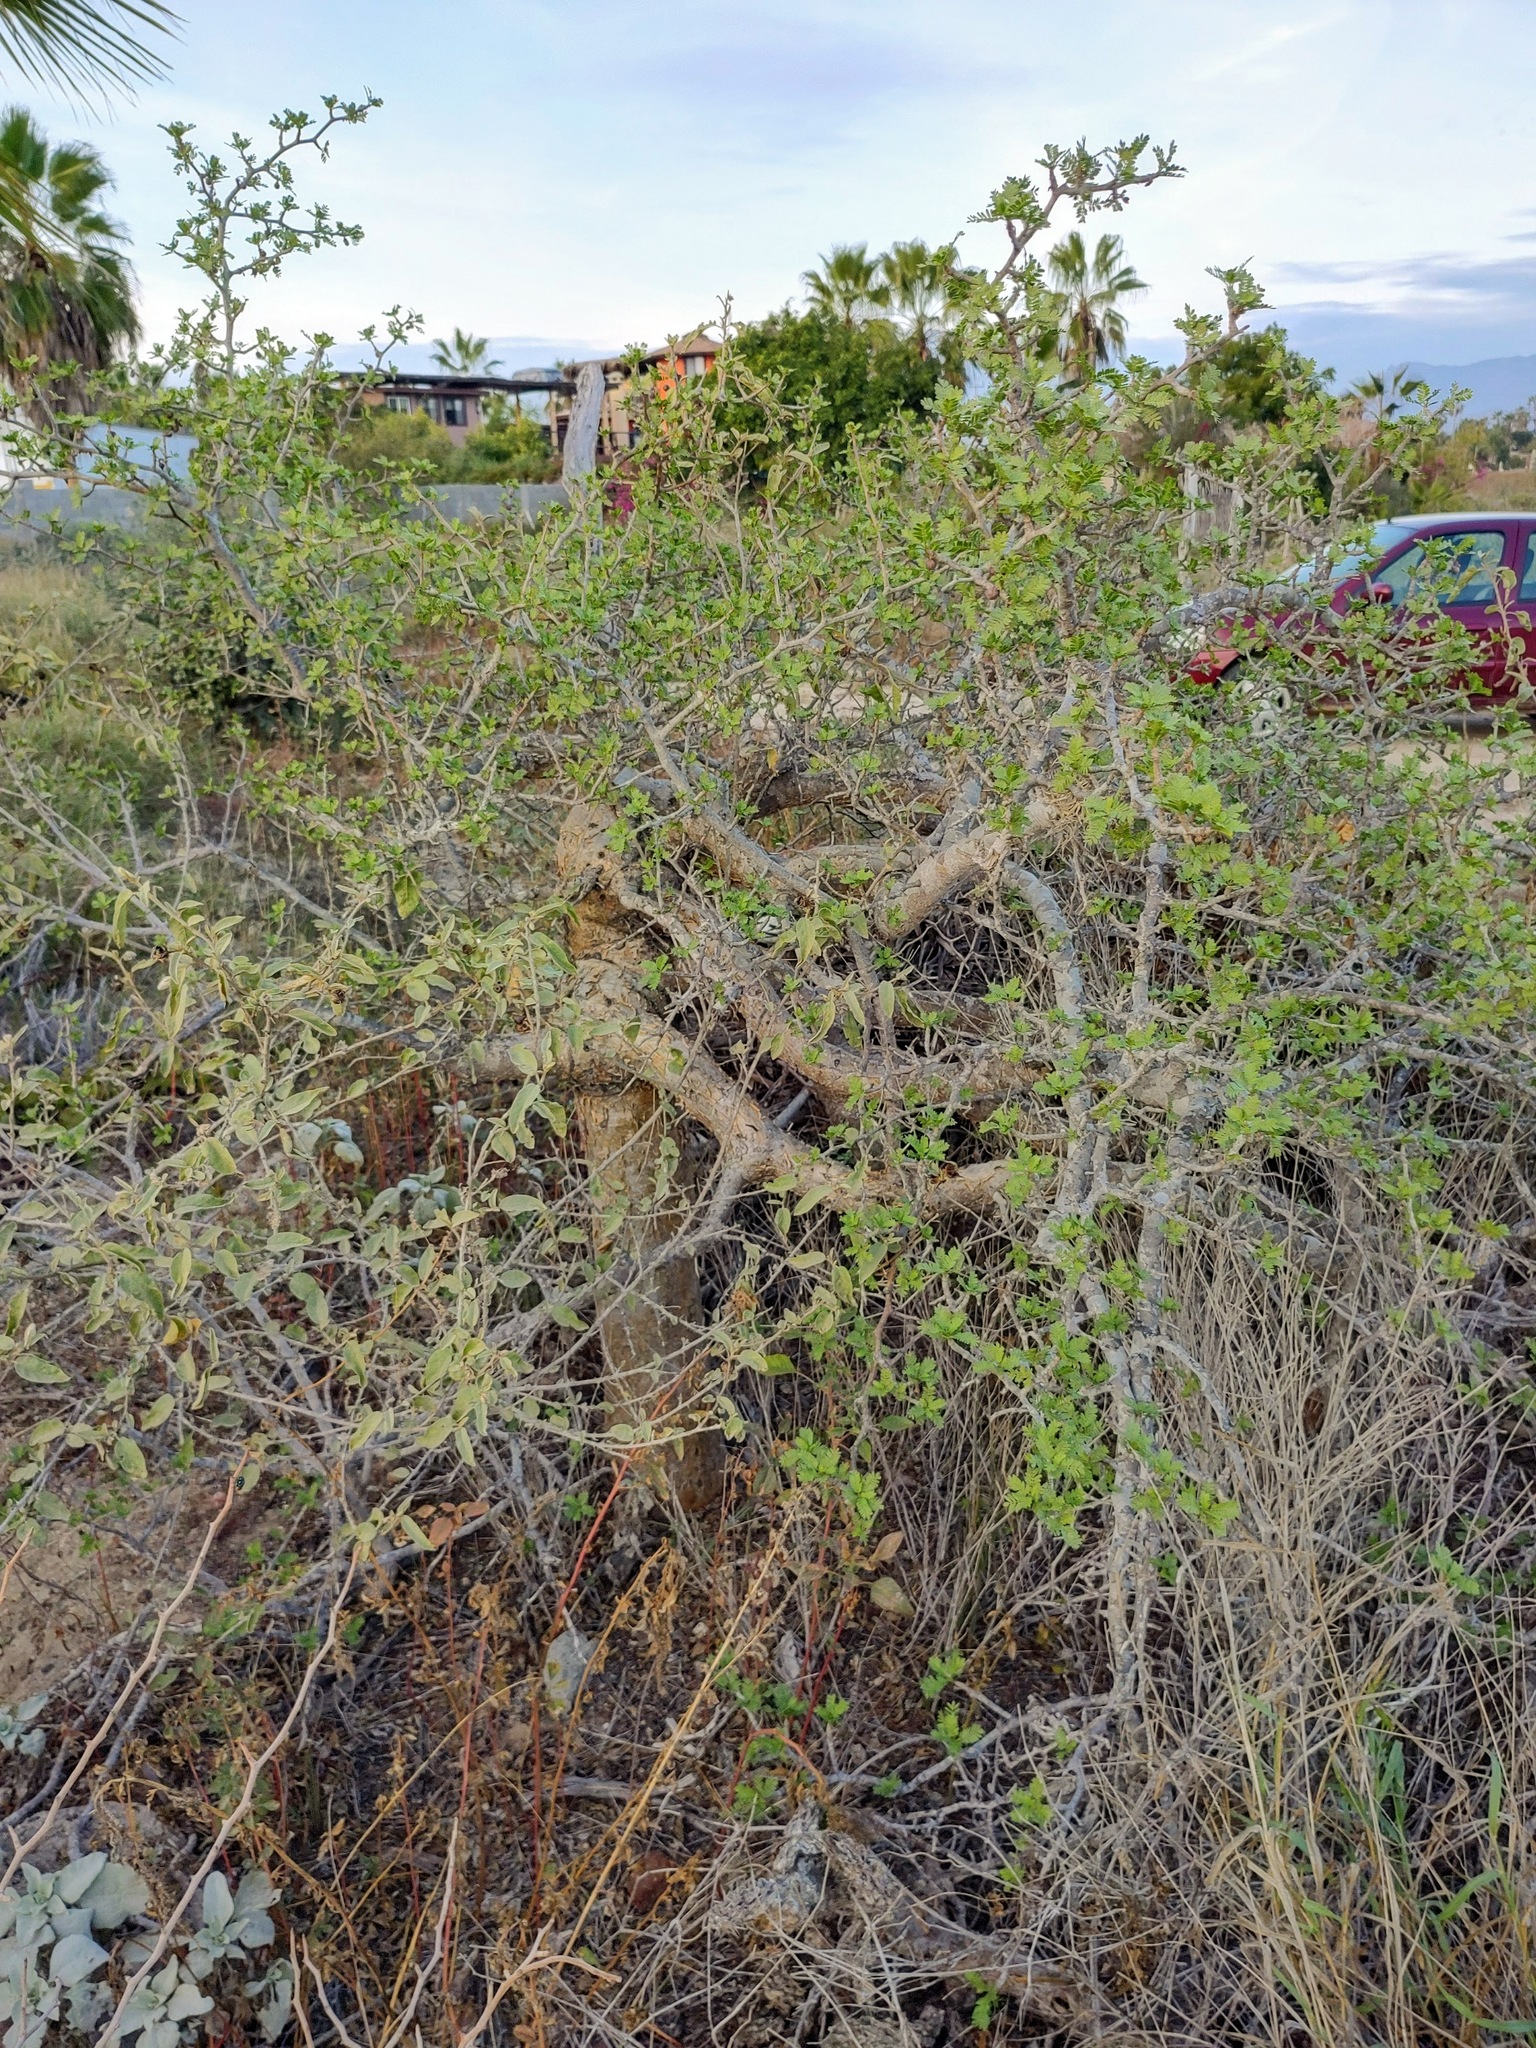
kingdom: Plantae
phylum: Tracheophyta
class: Magnoliopsida
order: Sapindales
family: Burseraceae
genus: Bursera
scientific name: Bursera microphylla
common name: Elephant tree
